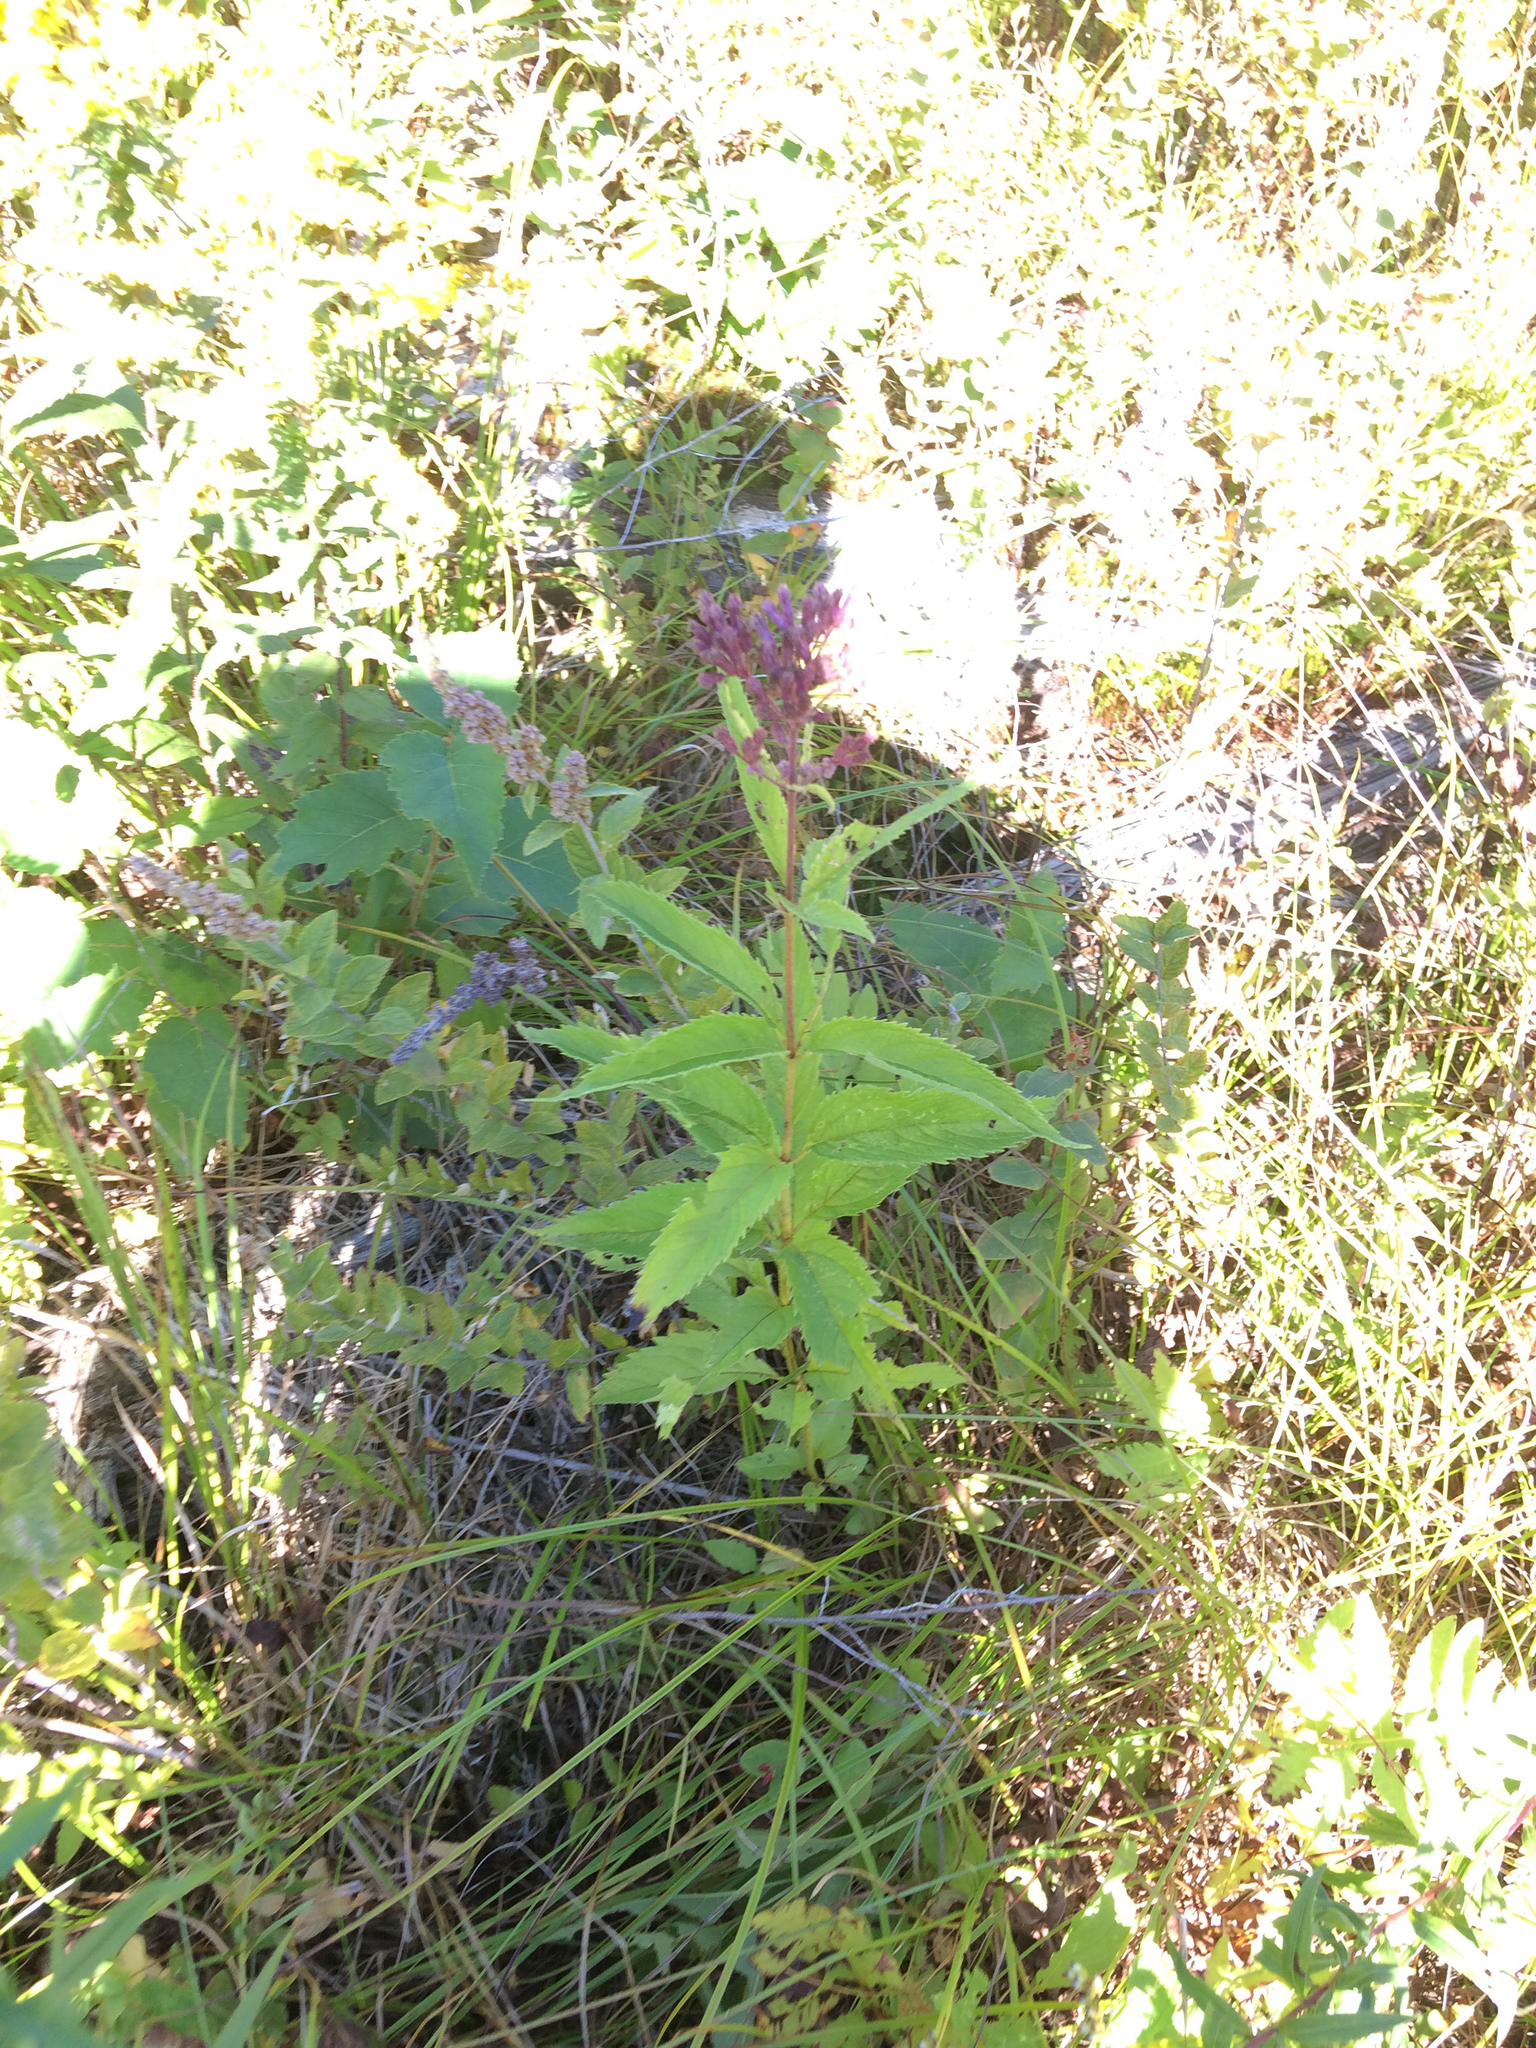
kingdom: Plantae
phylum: Tracheophyta
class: Magnoliopsida
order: Asterales
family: Asteraceae
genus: Eutrochium
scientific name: Eutrochium maculatum
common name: Spotted joe pye weed
